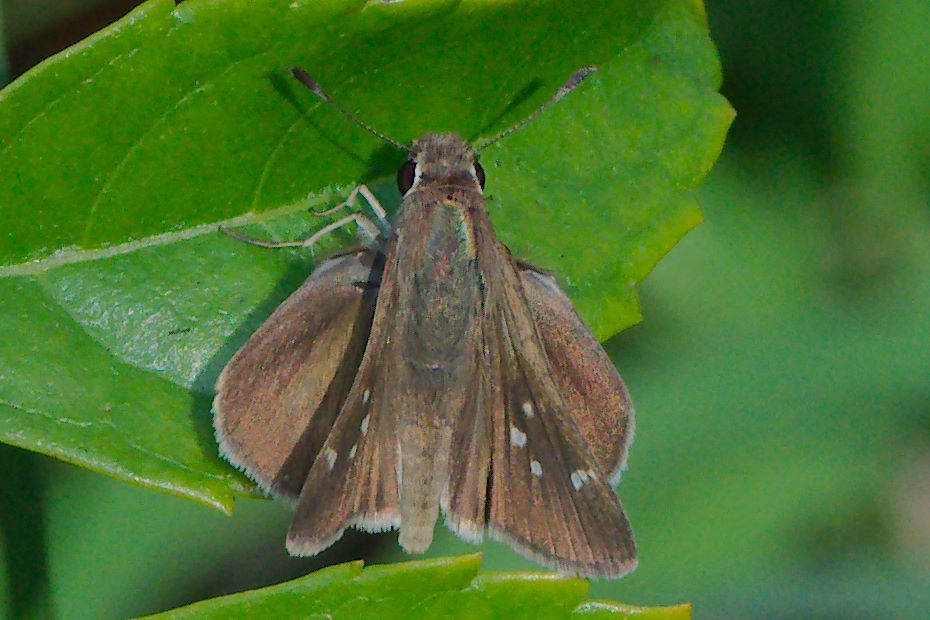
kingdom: Animalia
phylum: Arthropoda
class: Insecta
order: Lepidoptera
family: Hesperiidae
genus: Lerodea
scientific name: Lerodea eufala
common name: Eufala skipper
